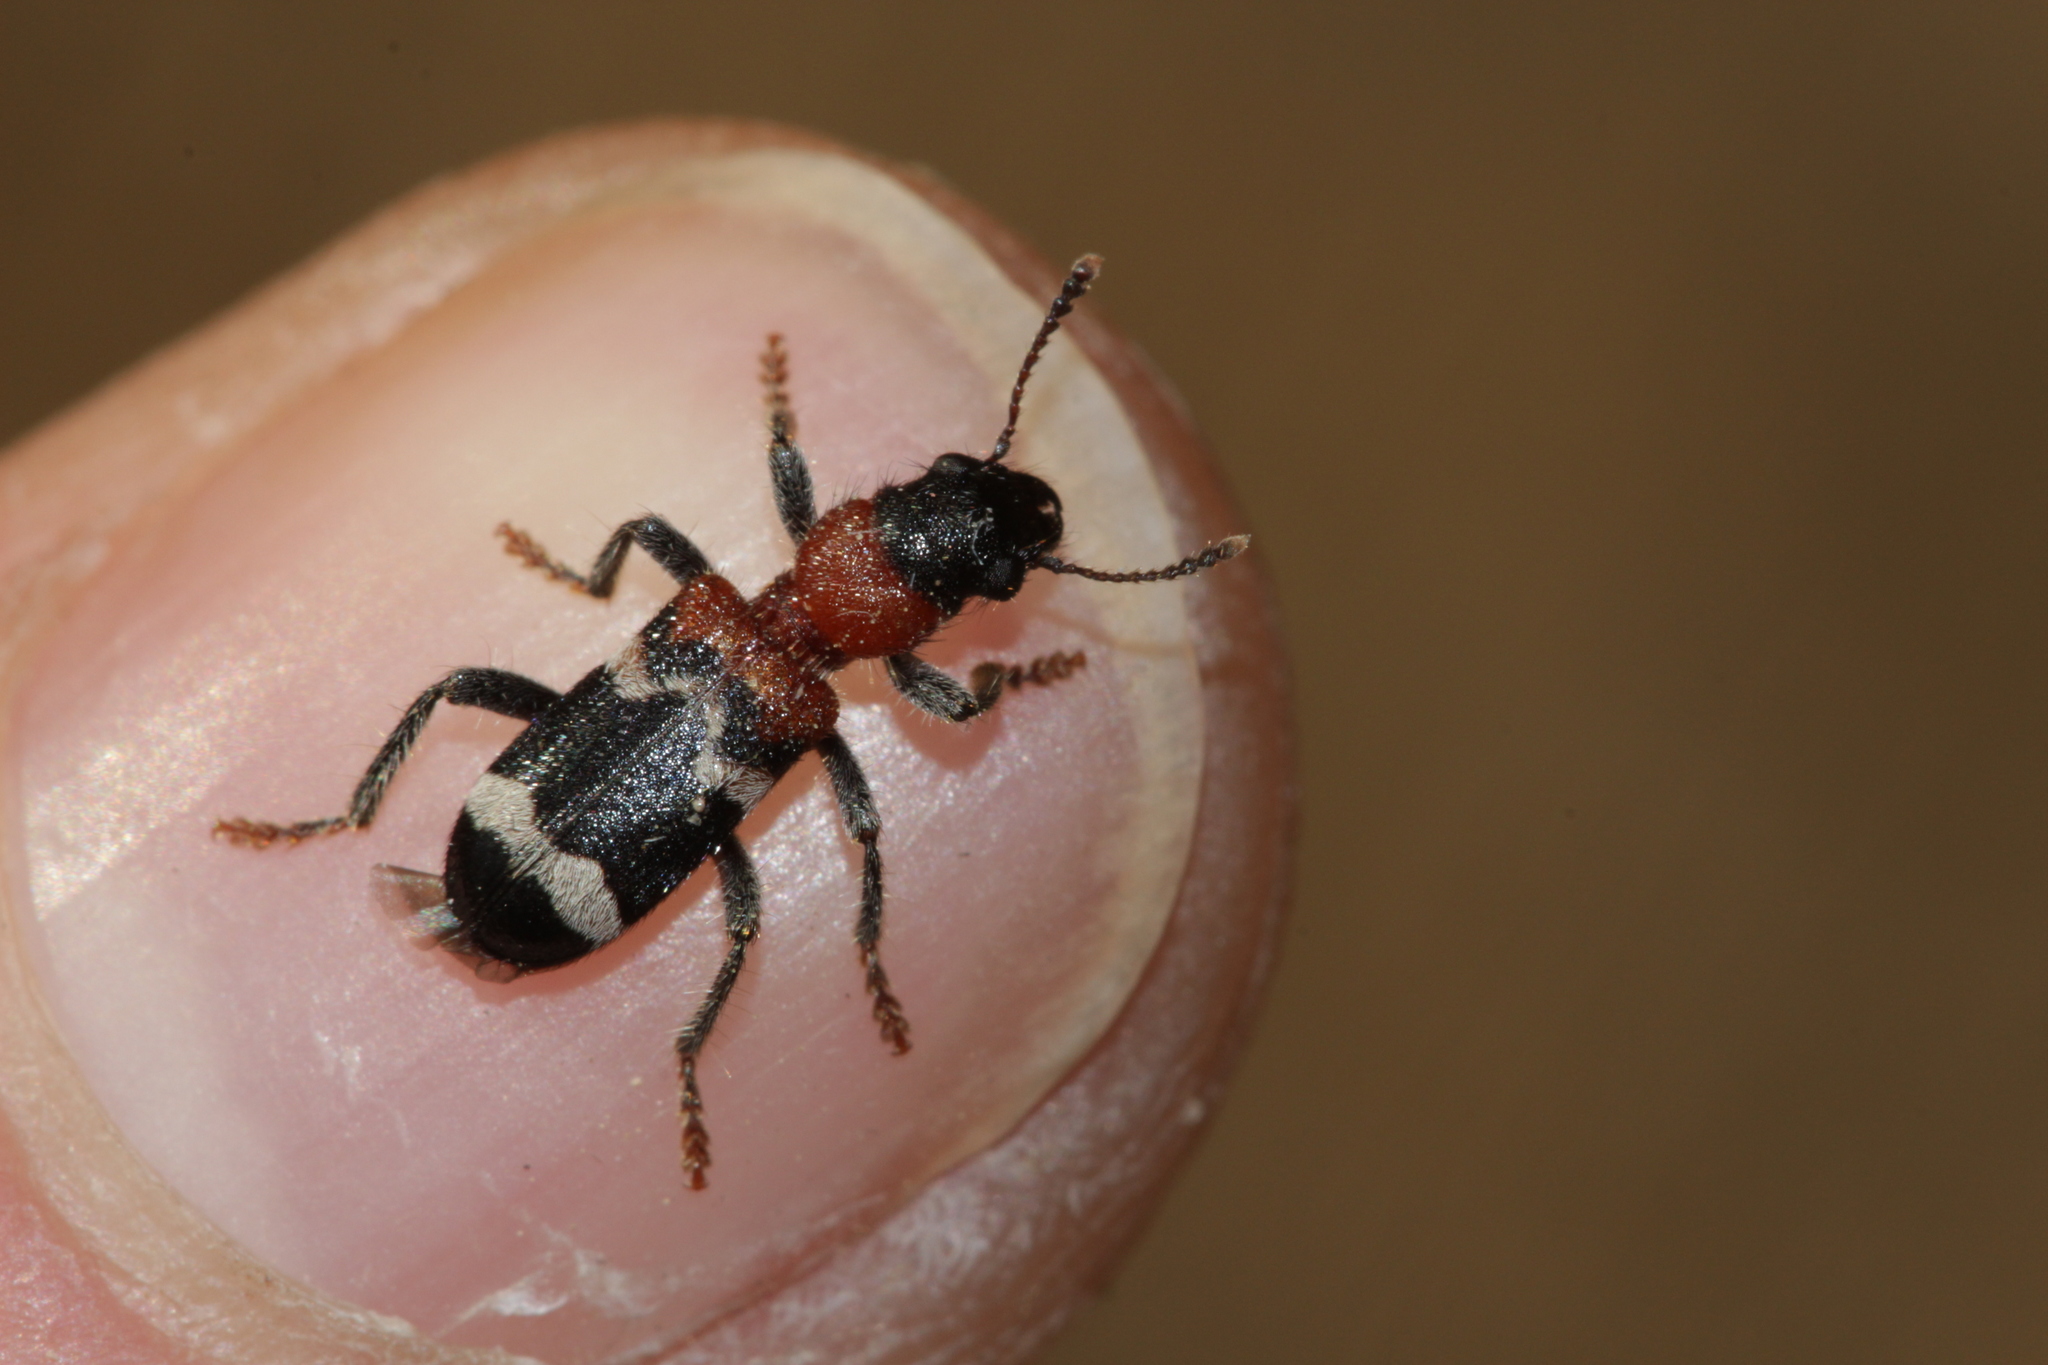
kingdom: Animalia
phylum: Arthropoda
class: Insecta
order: Coleoptera
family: Cleridae
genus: Thanasimus
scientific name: Thanasimus formicarius
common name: Ant beetle
